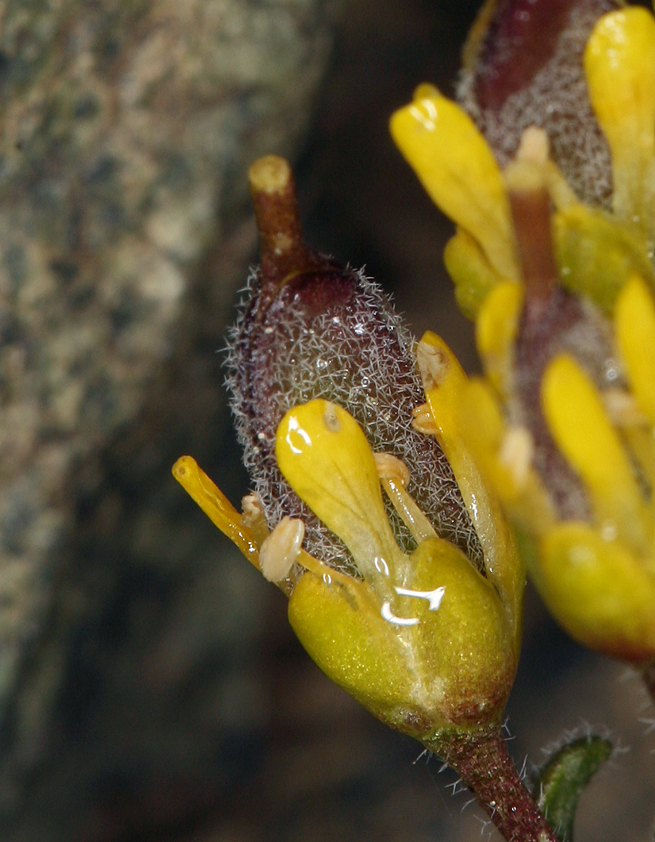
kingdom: Plantae
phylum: Tracheophyta
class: Magnoliopsida
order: Brassicales
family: Brassicaceae
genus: Draba
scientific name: Draba aureola
